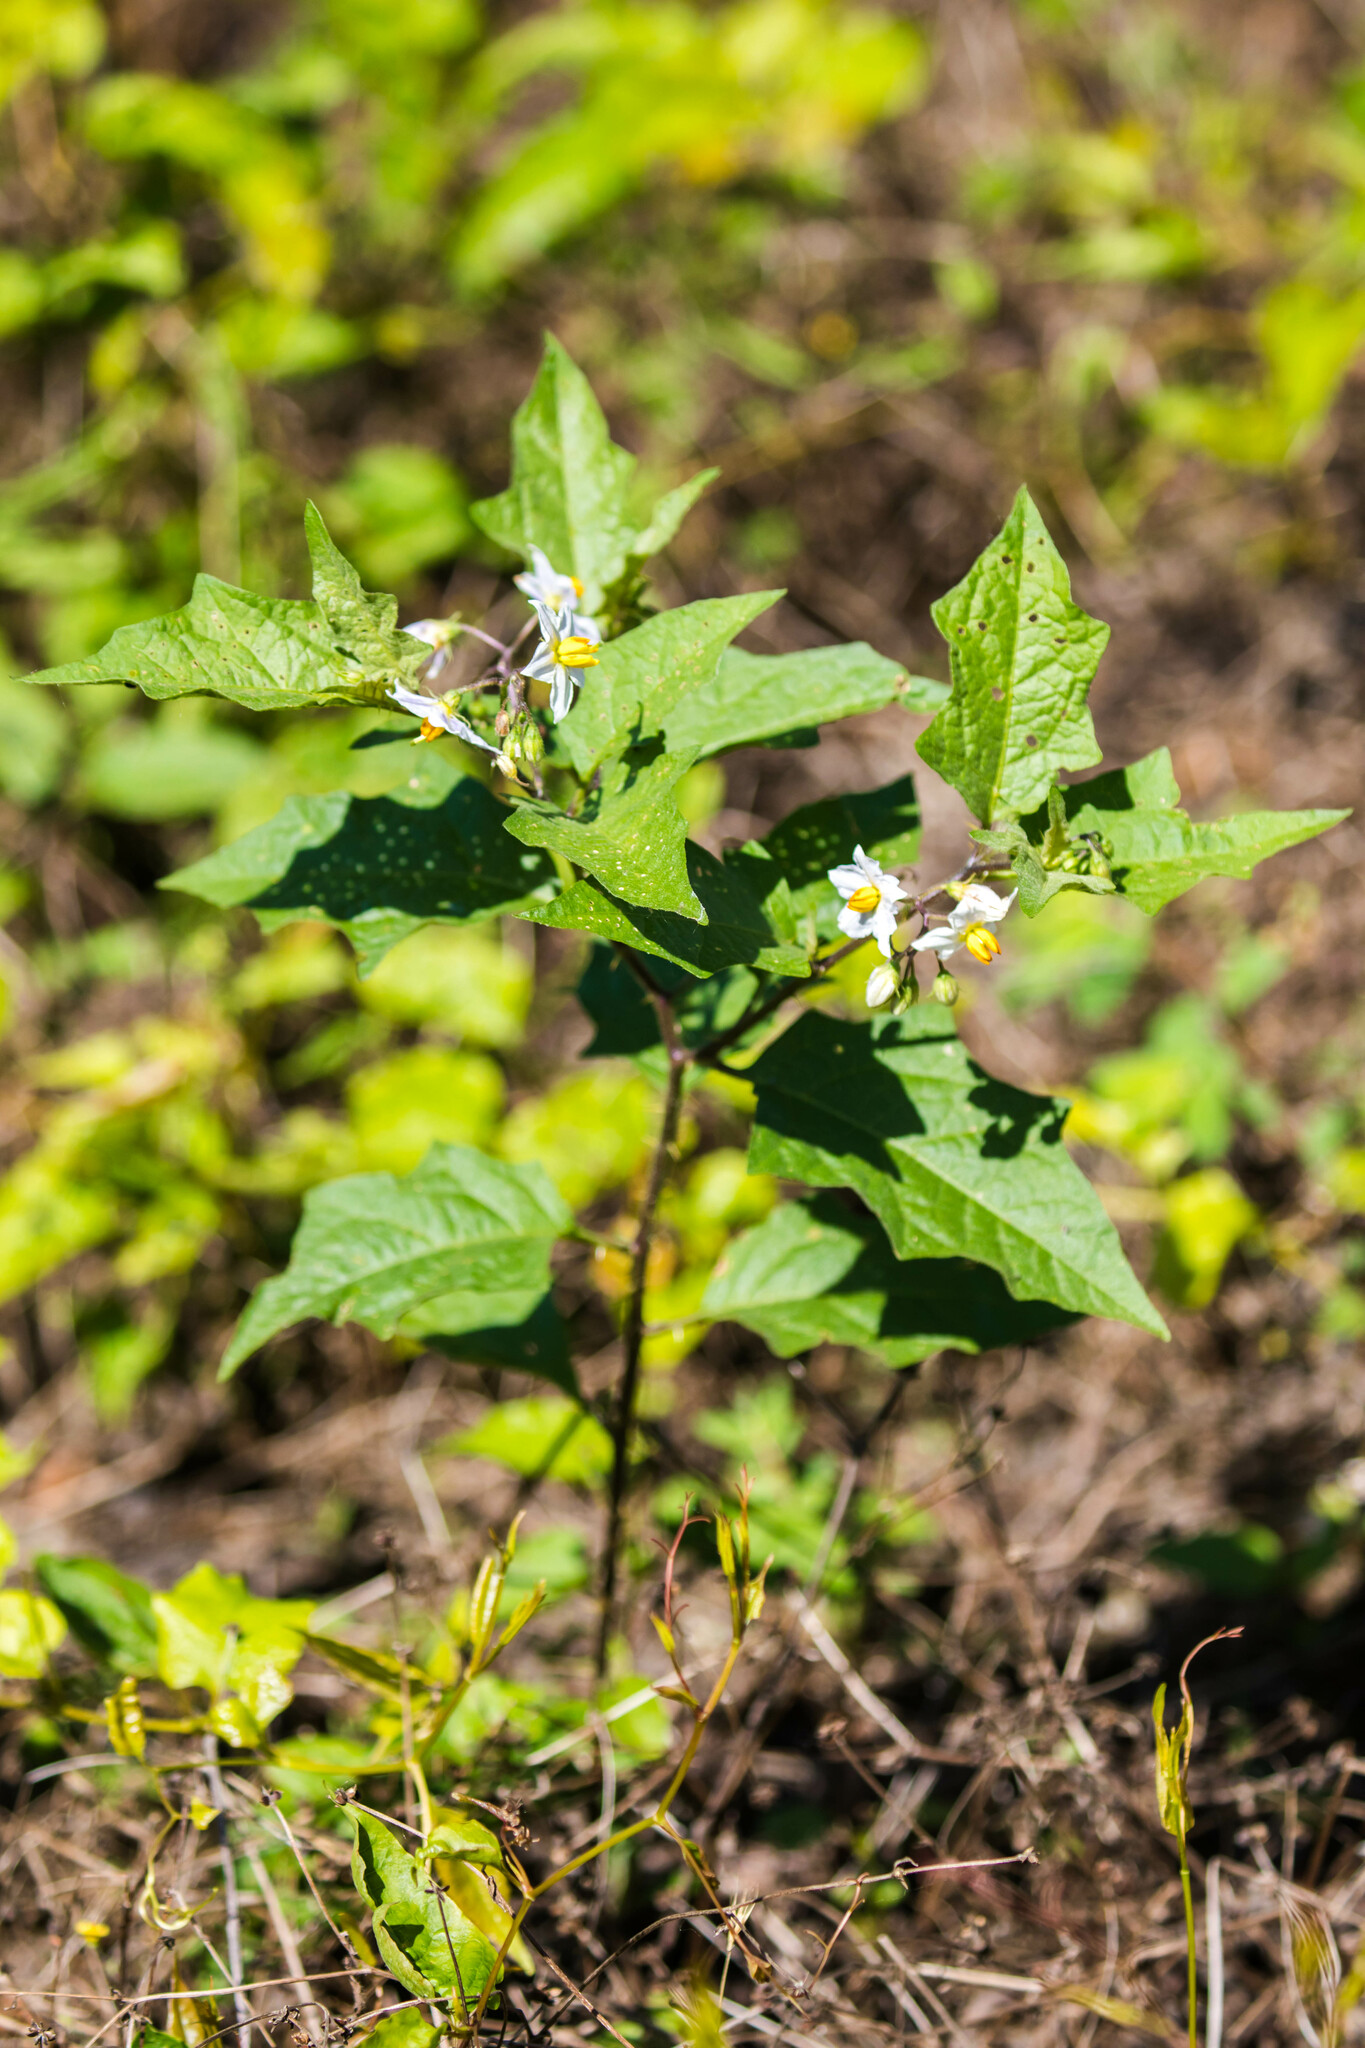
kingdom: Plantae
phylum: Tracheophyta
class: Magnoliopsida
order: Solanales
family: Solanaceae
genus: Solanum
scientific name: Solanum carolinense
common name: Horse-nettle
